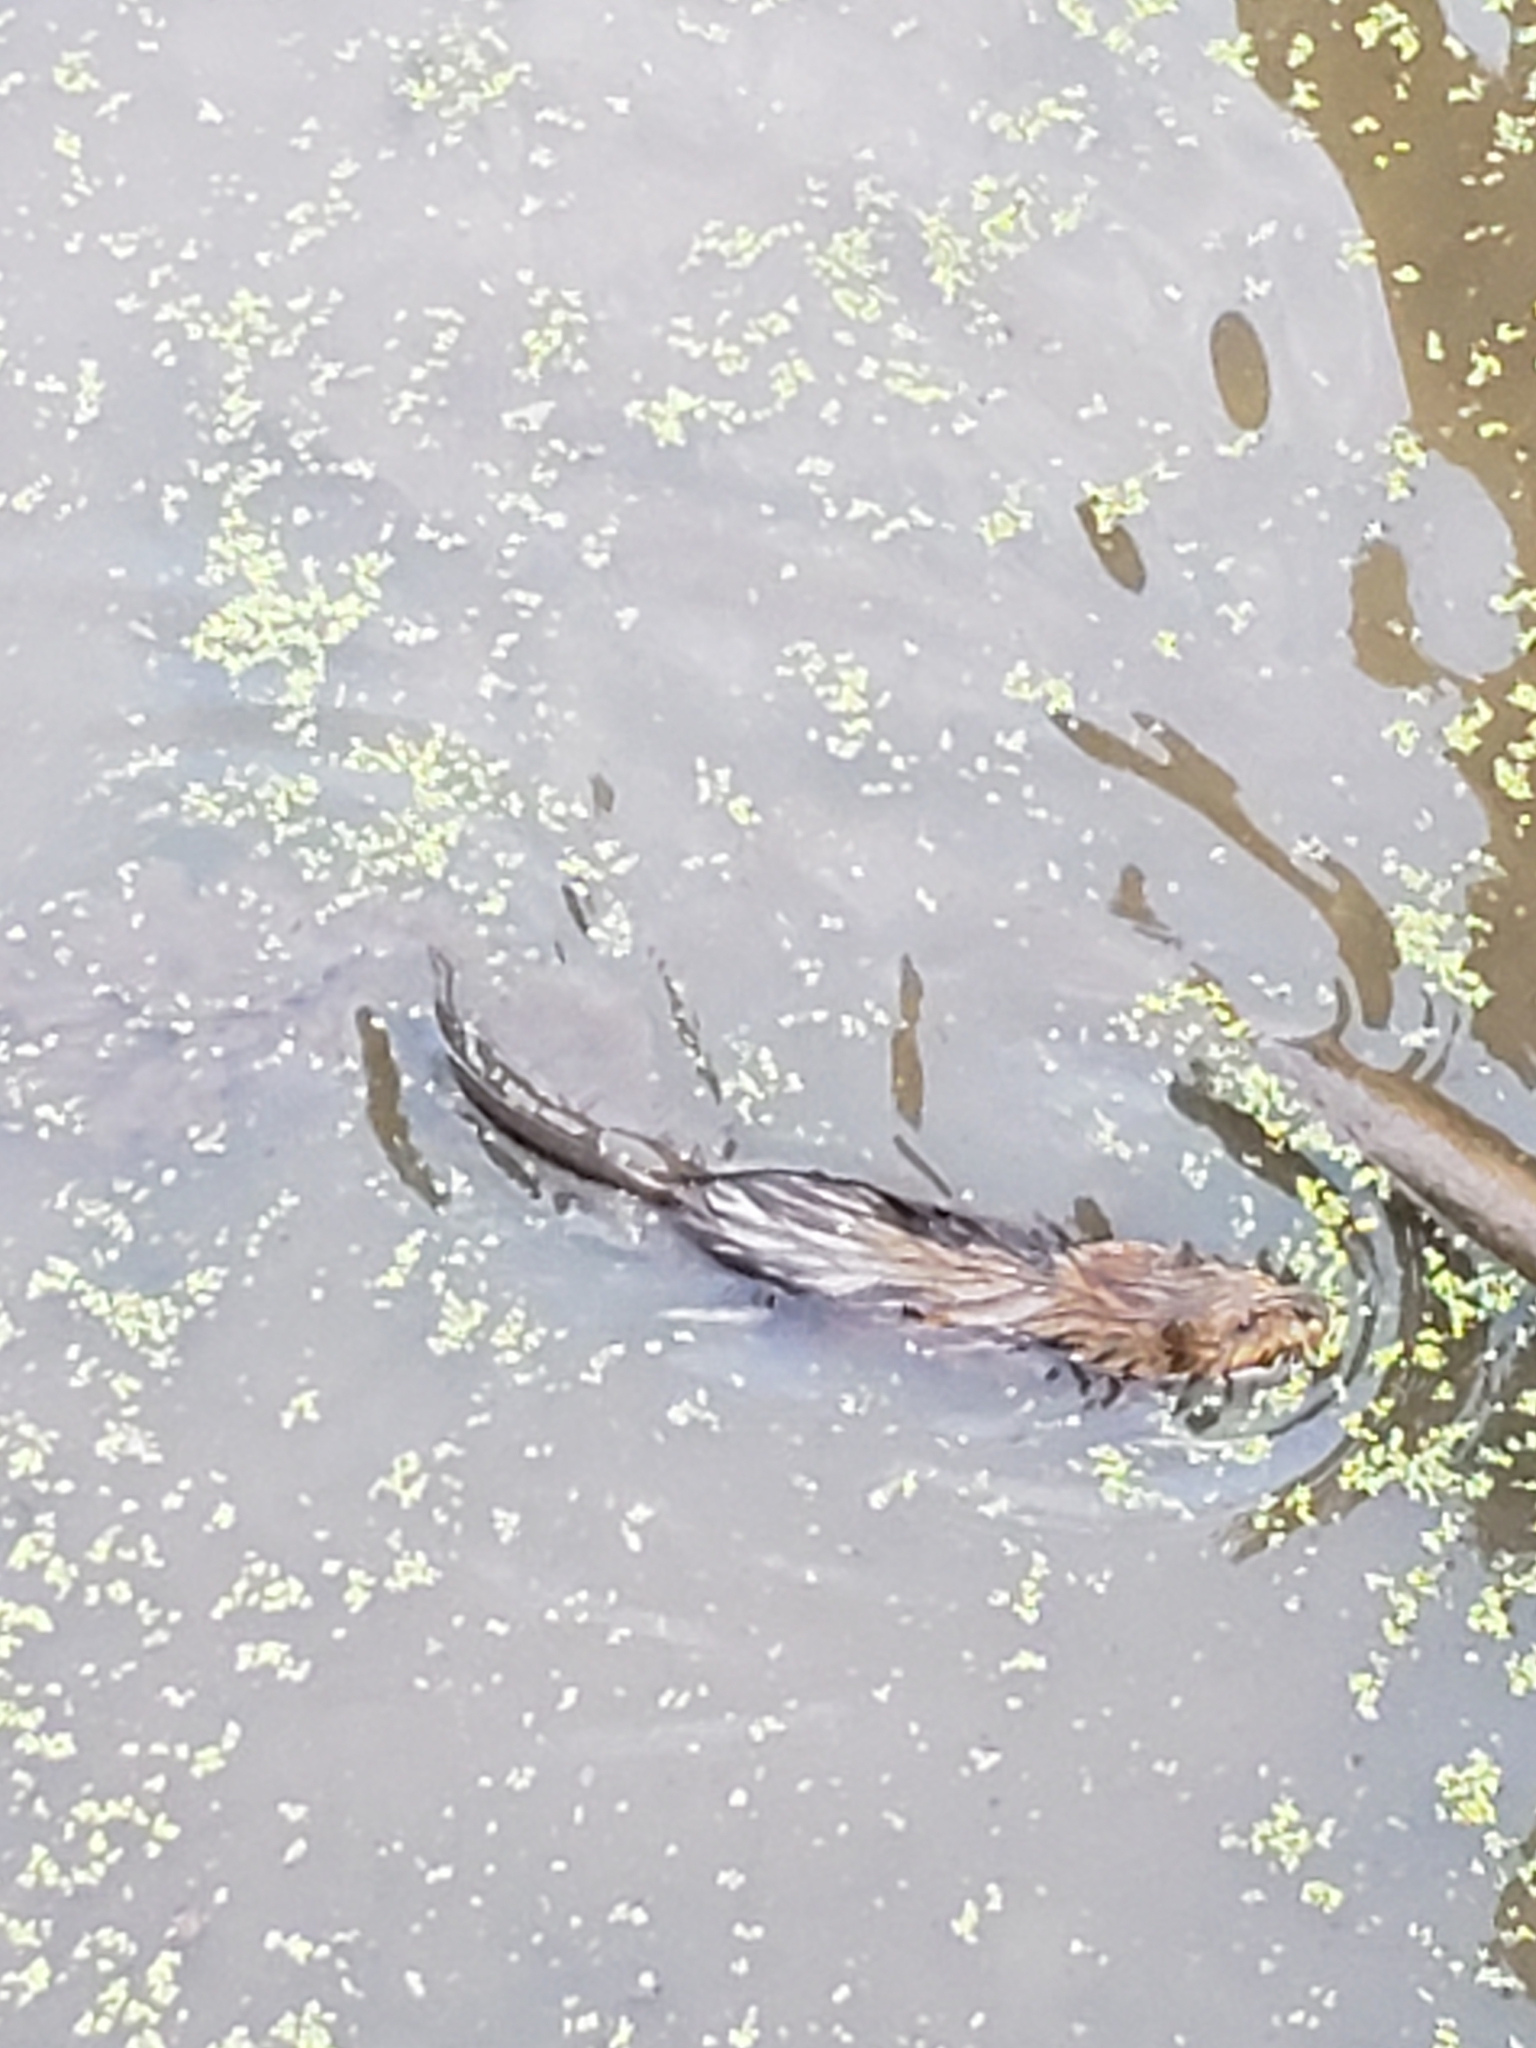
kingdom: Animalia
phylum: Chordata
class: Mammalia
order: Rodentia
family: Cricetidae
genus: Ondatra
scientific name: Ondatra zibethicus
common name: Muskrat
